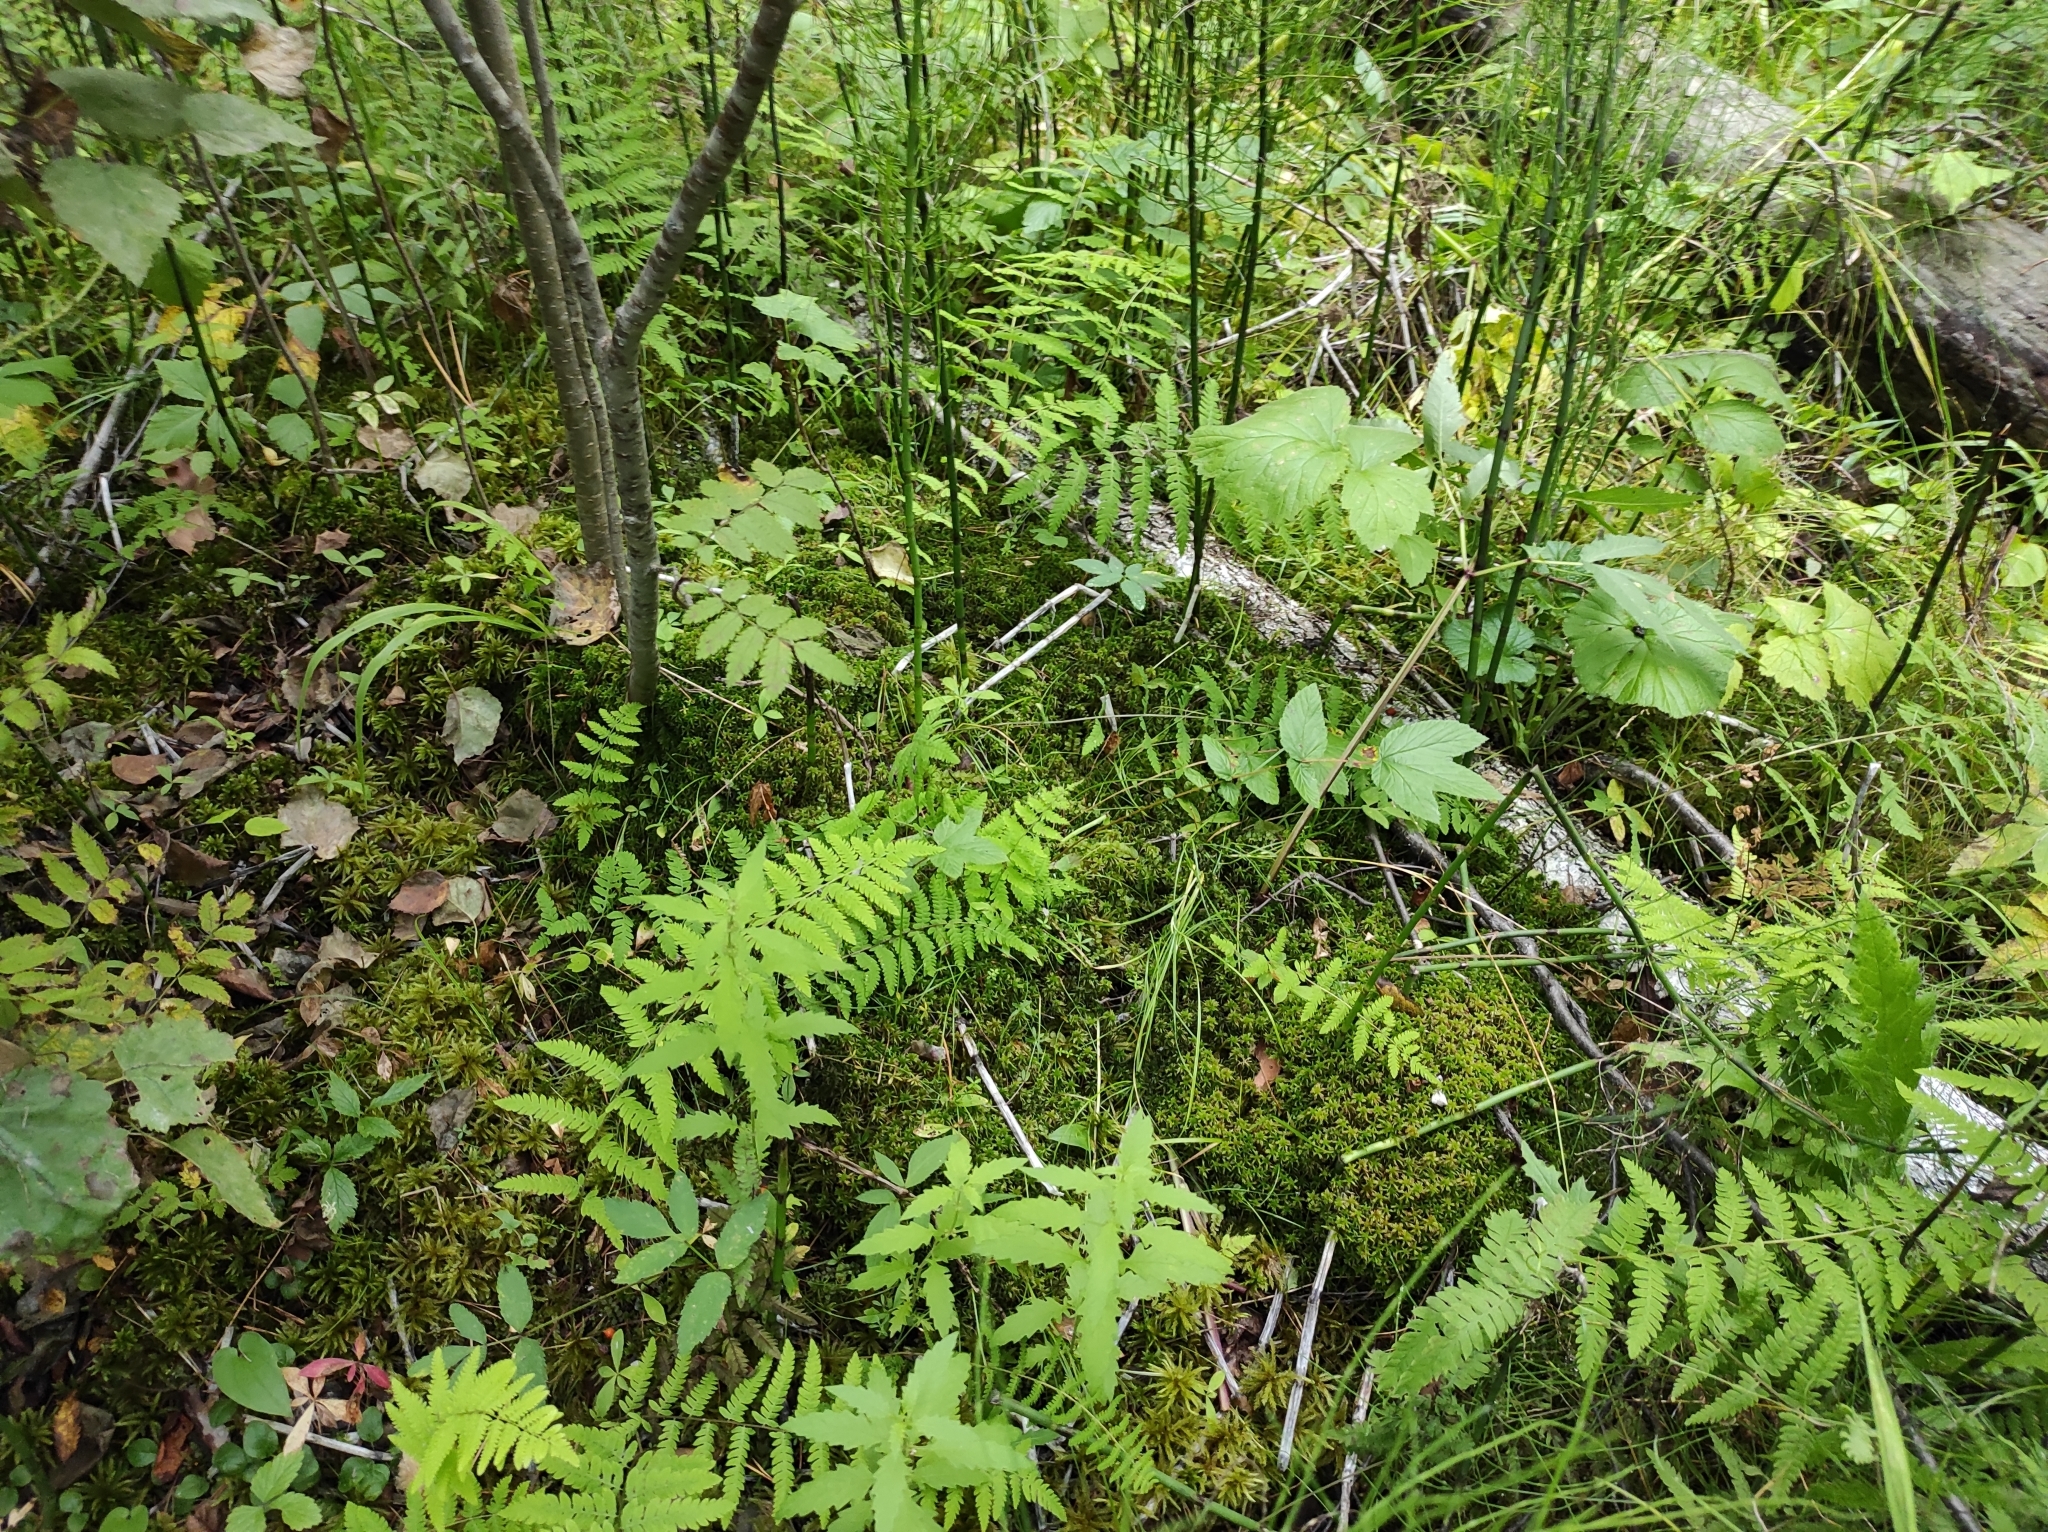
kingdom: Plantae
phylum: Tracheophyta
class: Polypodiopsida
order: Polypodiales
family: Thelypteridaceae
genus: Thelypteris
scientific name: Thelypteris palustris
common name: Marsh fern
